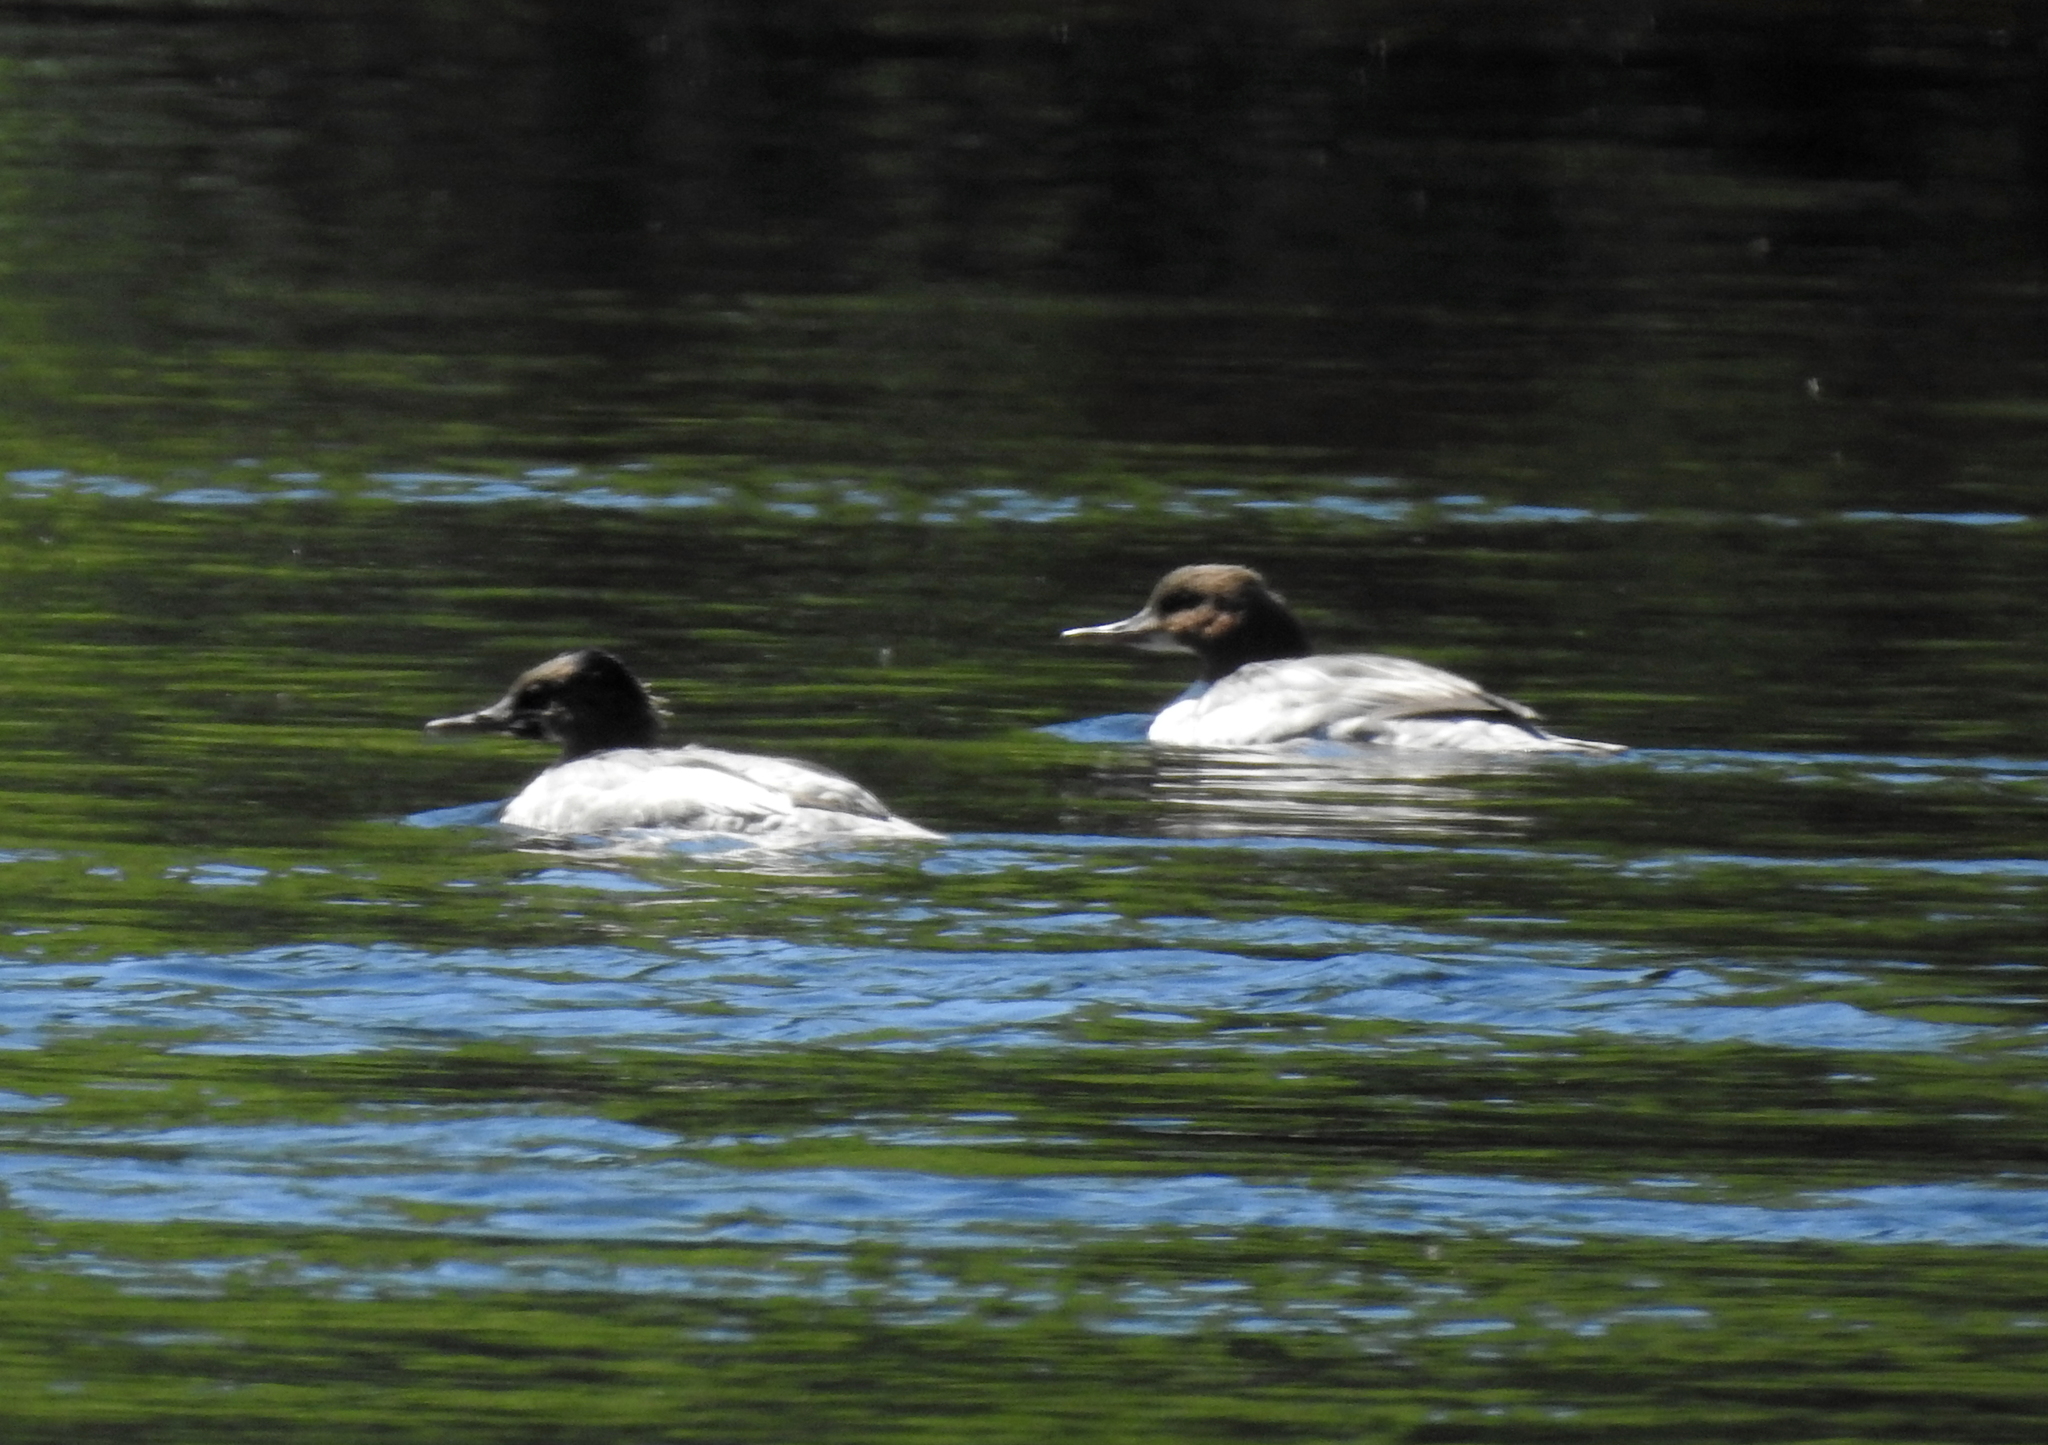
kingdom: Animalia
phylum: Chordata
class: Aves
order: Anseriformes
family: Anatidae
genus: Mergus
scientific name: Mergus merganser
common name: Common merganser
